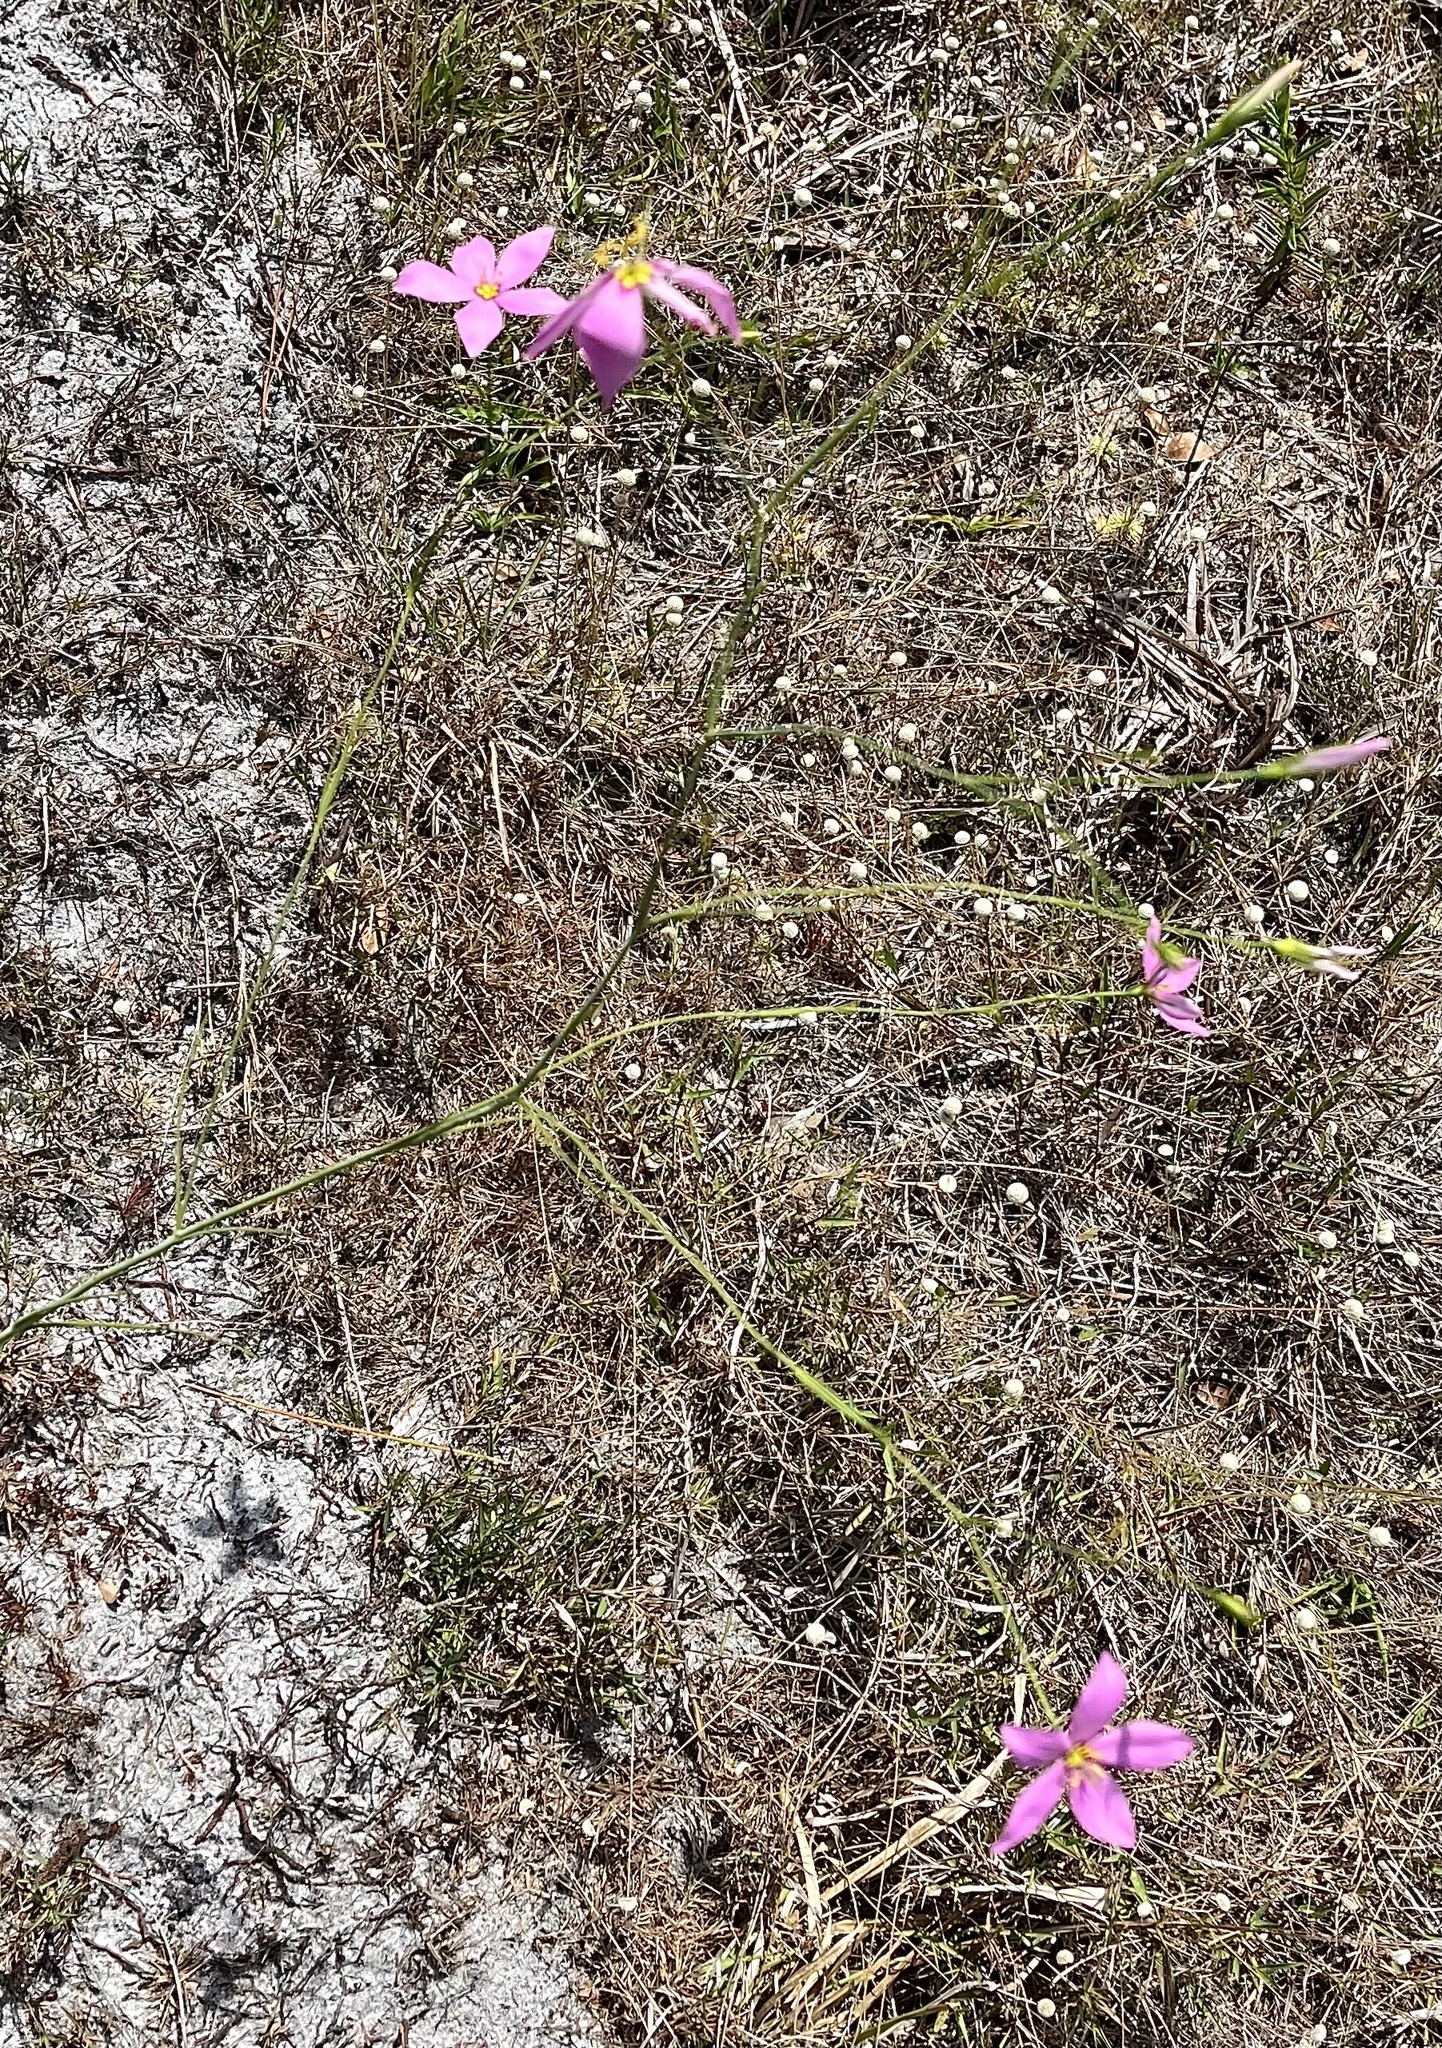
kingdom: Plantae
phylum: Tracheophyta
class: Magnoliopsida
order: Gentianales
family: Gentianaceae
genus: Sabatia
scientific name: Sabatia grandiflora
